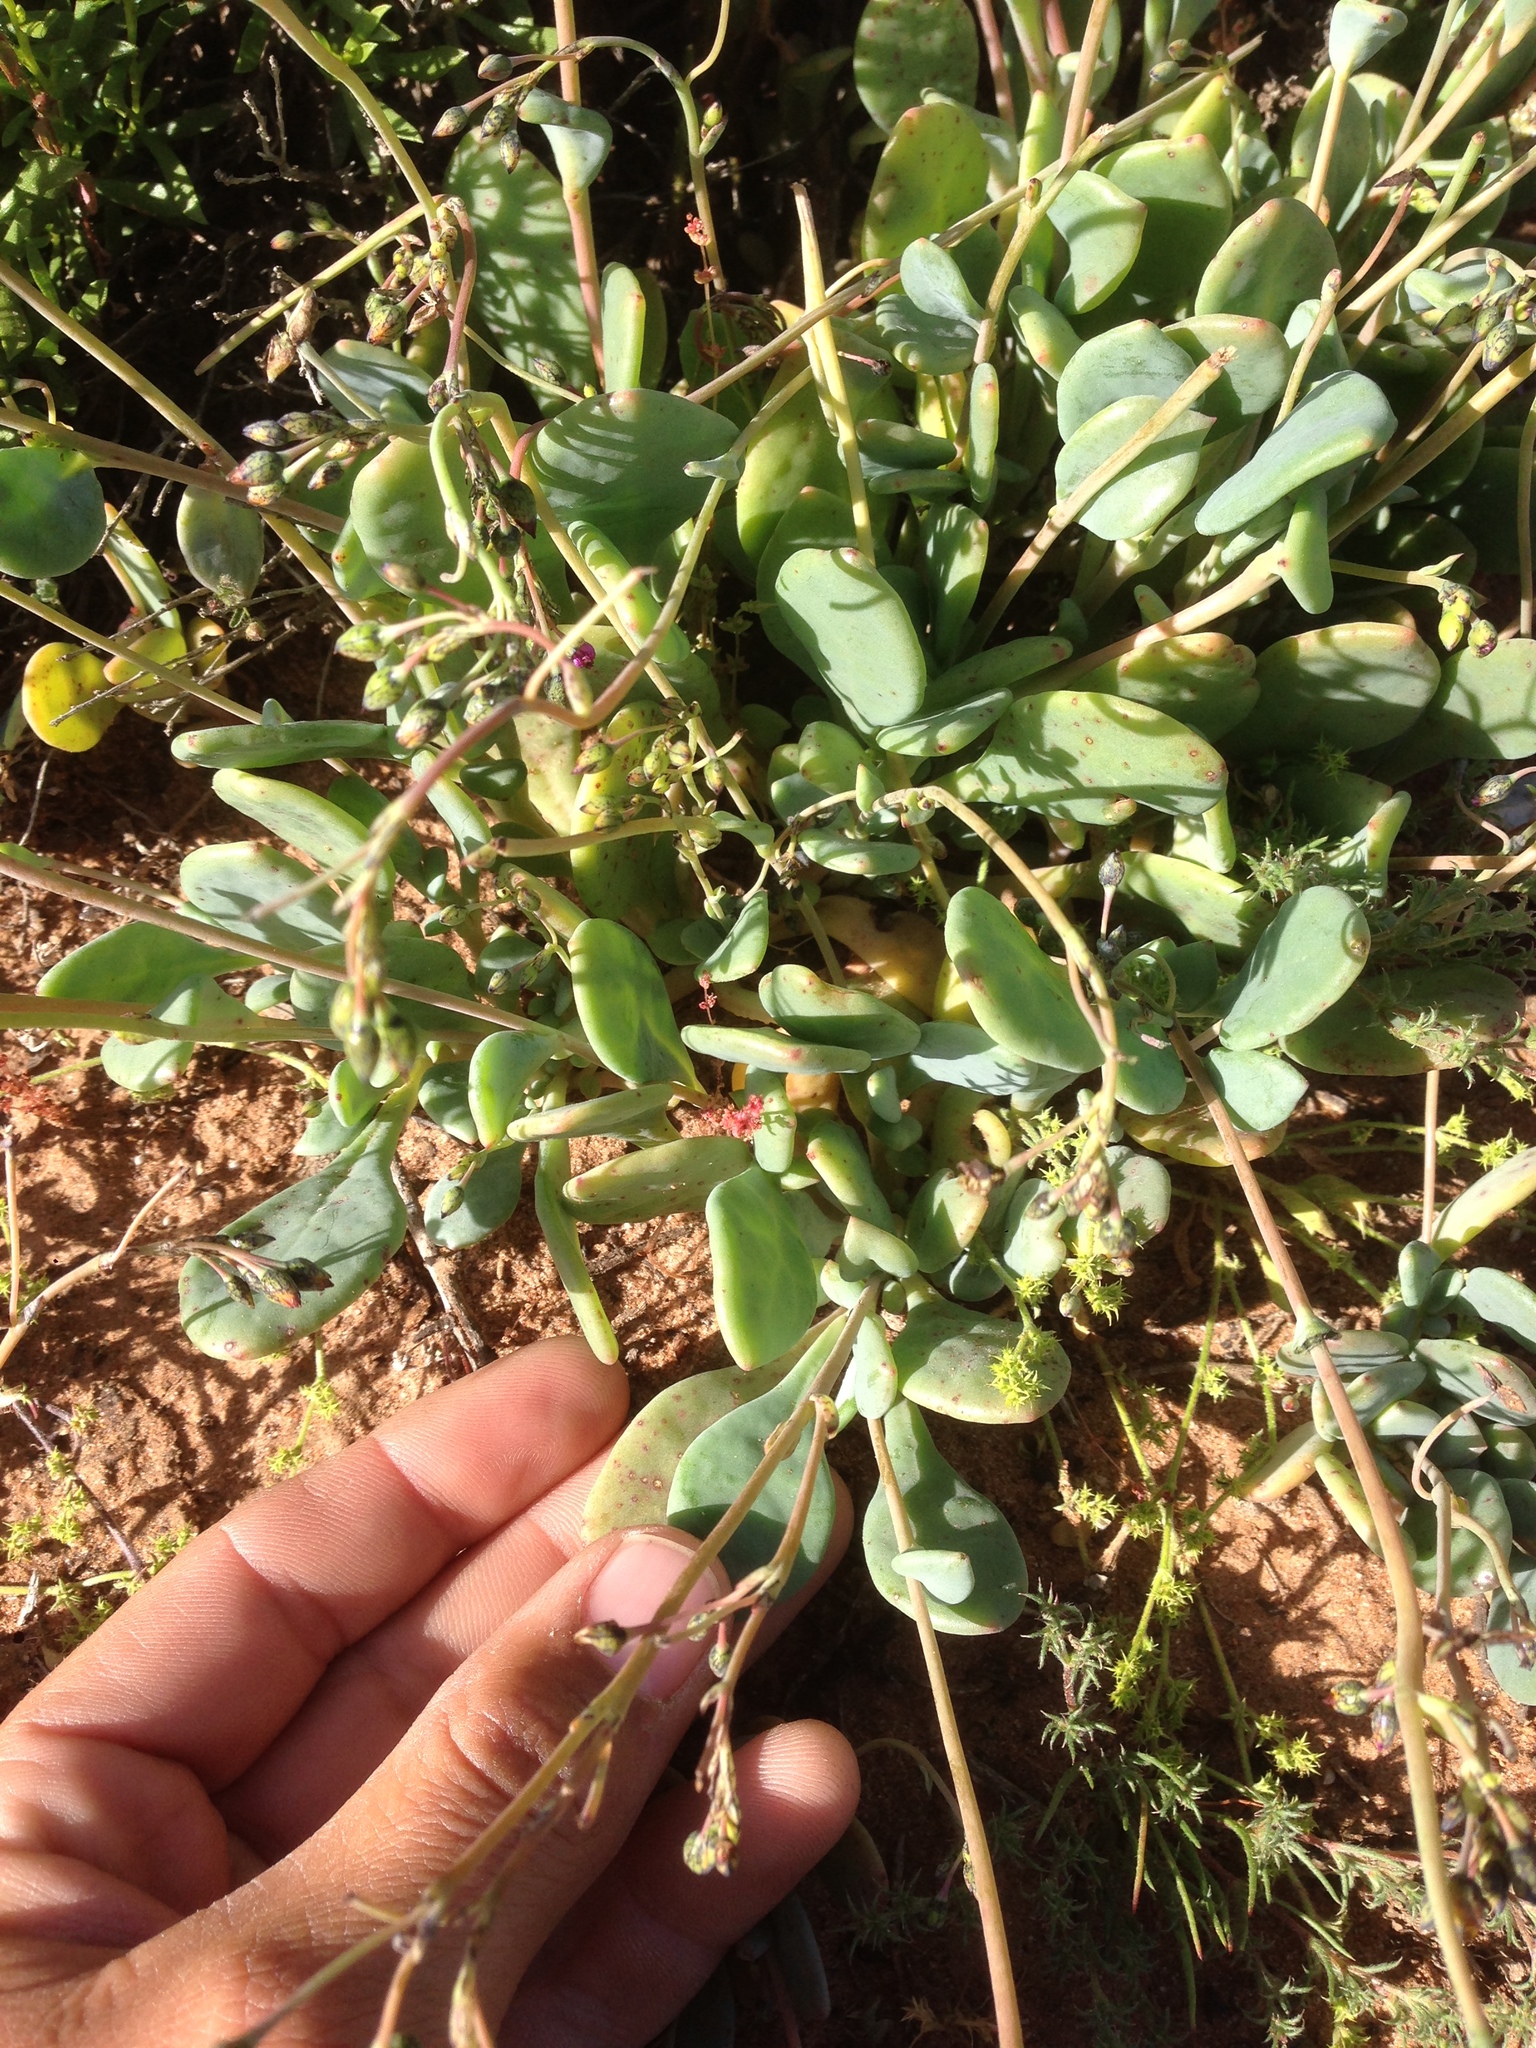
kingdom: Plantae
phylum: Tracheophyta
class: Magnoliopsida
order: Caryophyllales
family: Montiaceae
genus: Cistanthe
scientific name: Cistanthe maritima
